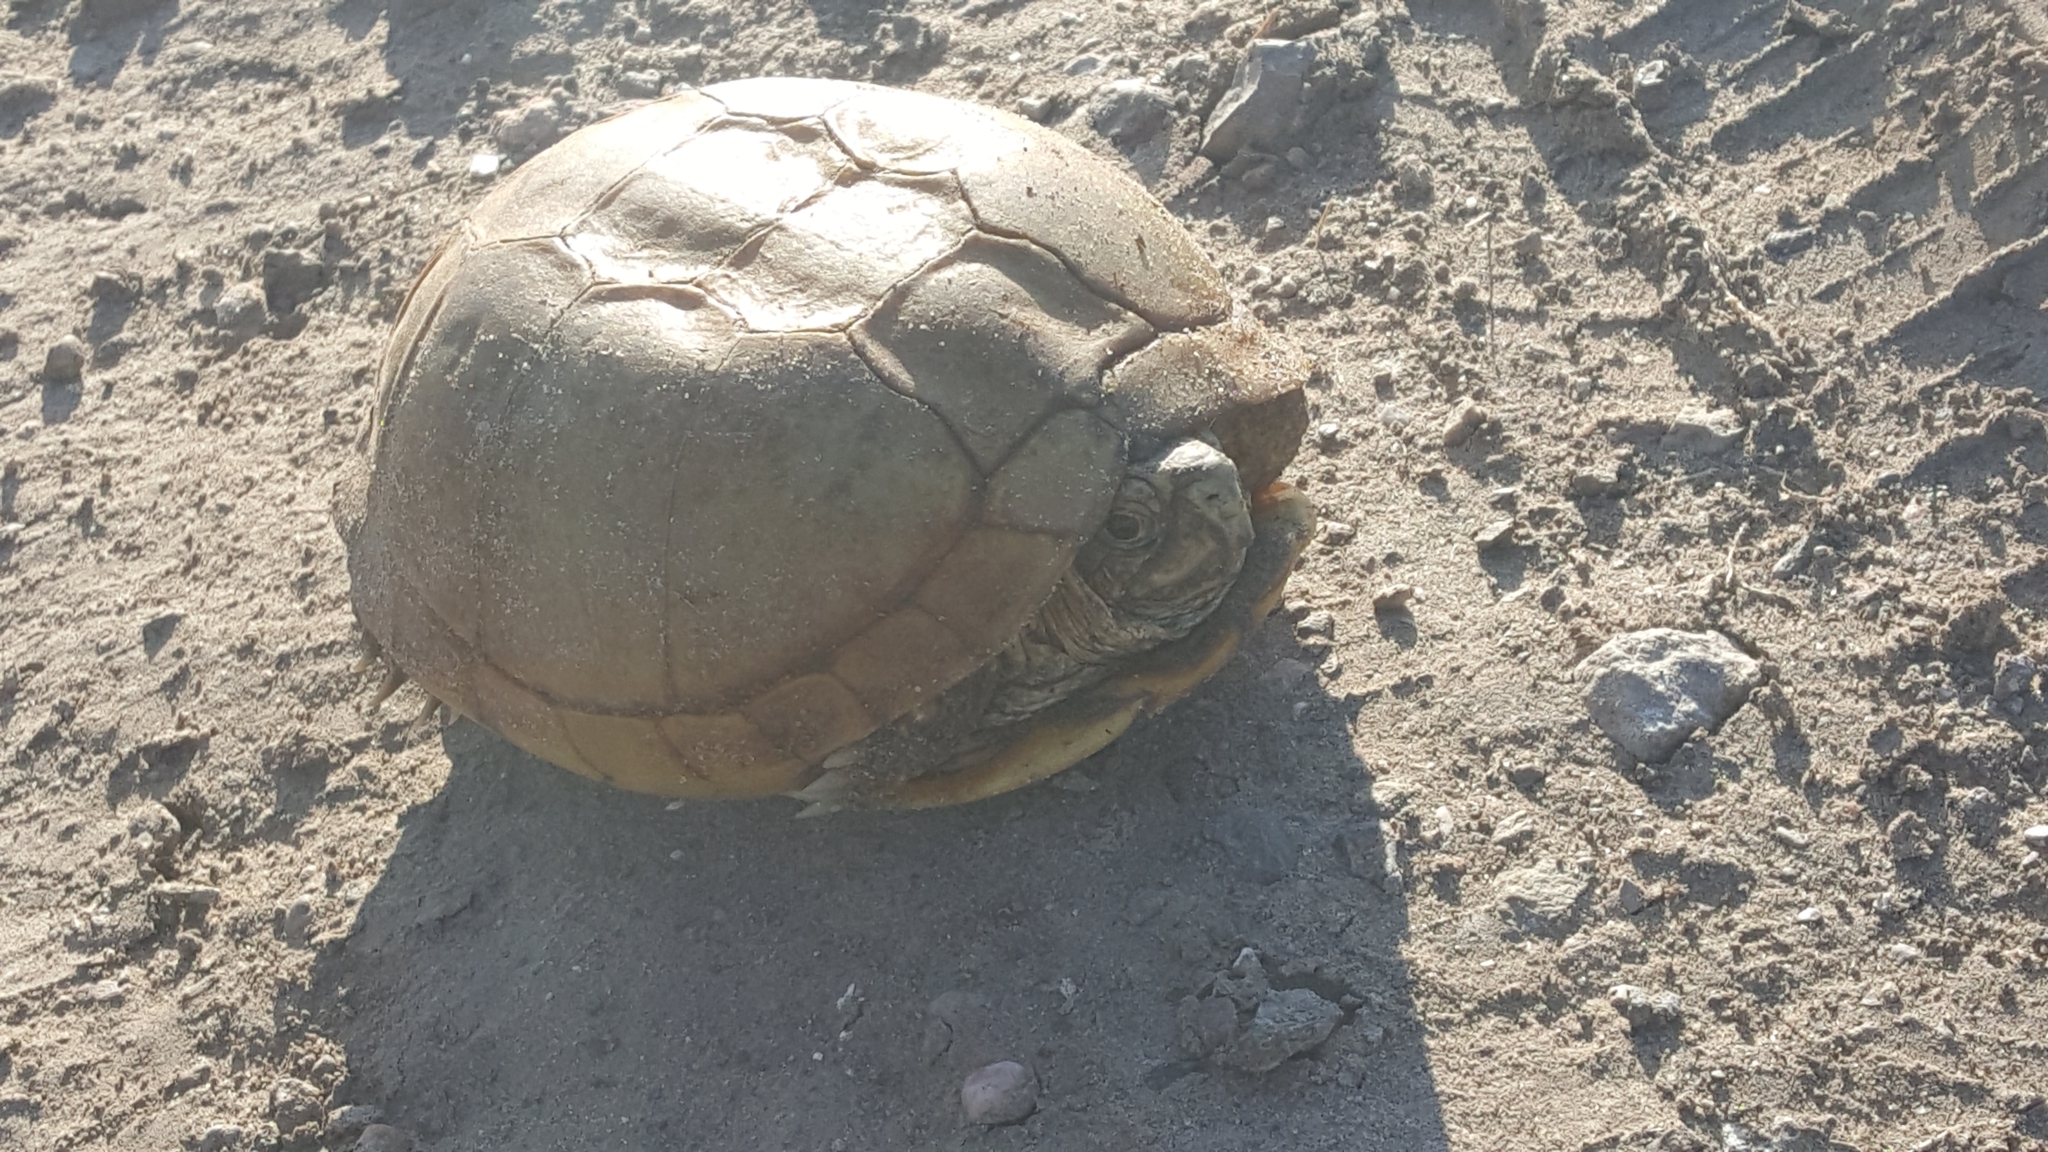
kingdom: Animalia
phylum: Chordata
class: Testudines
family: Emydidae
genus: Terrapene
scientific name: Terrapene ornata
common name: Western box turtle
